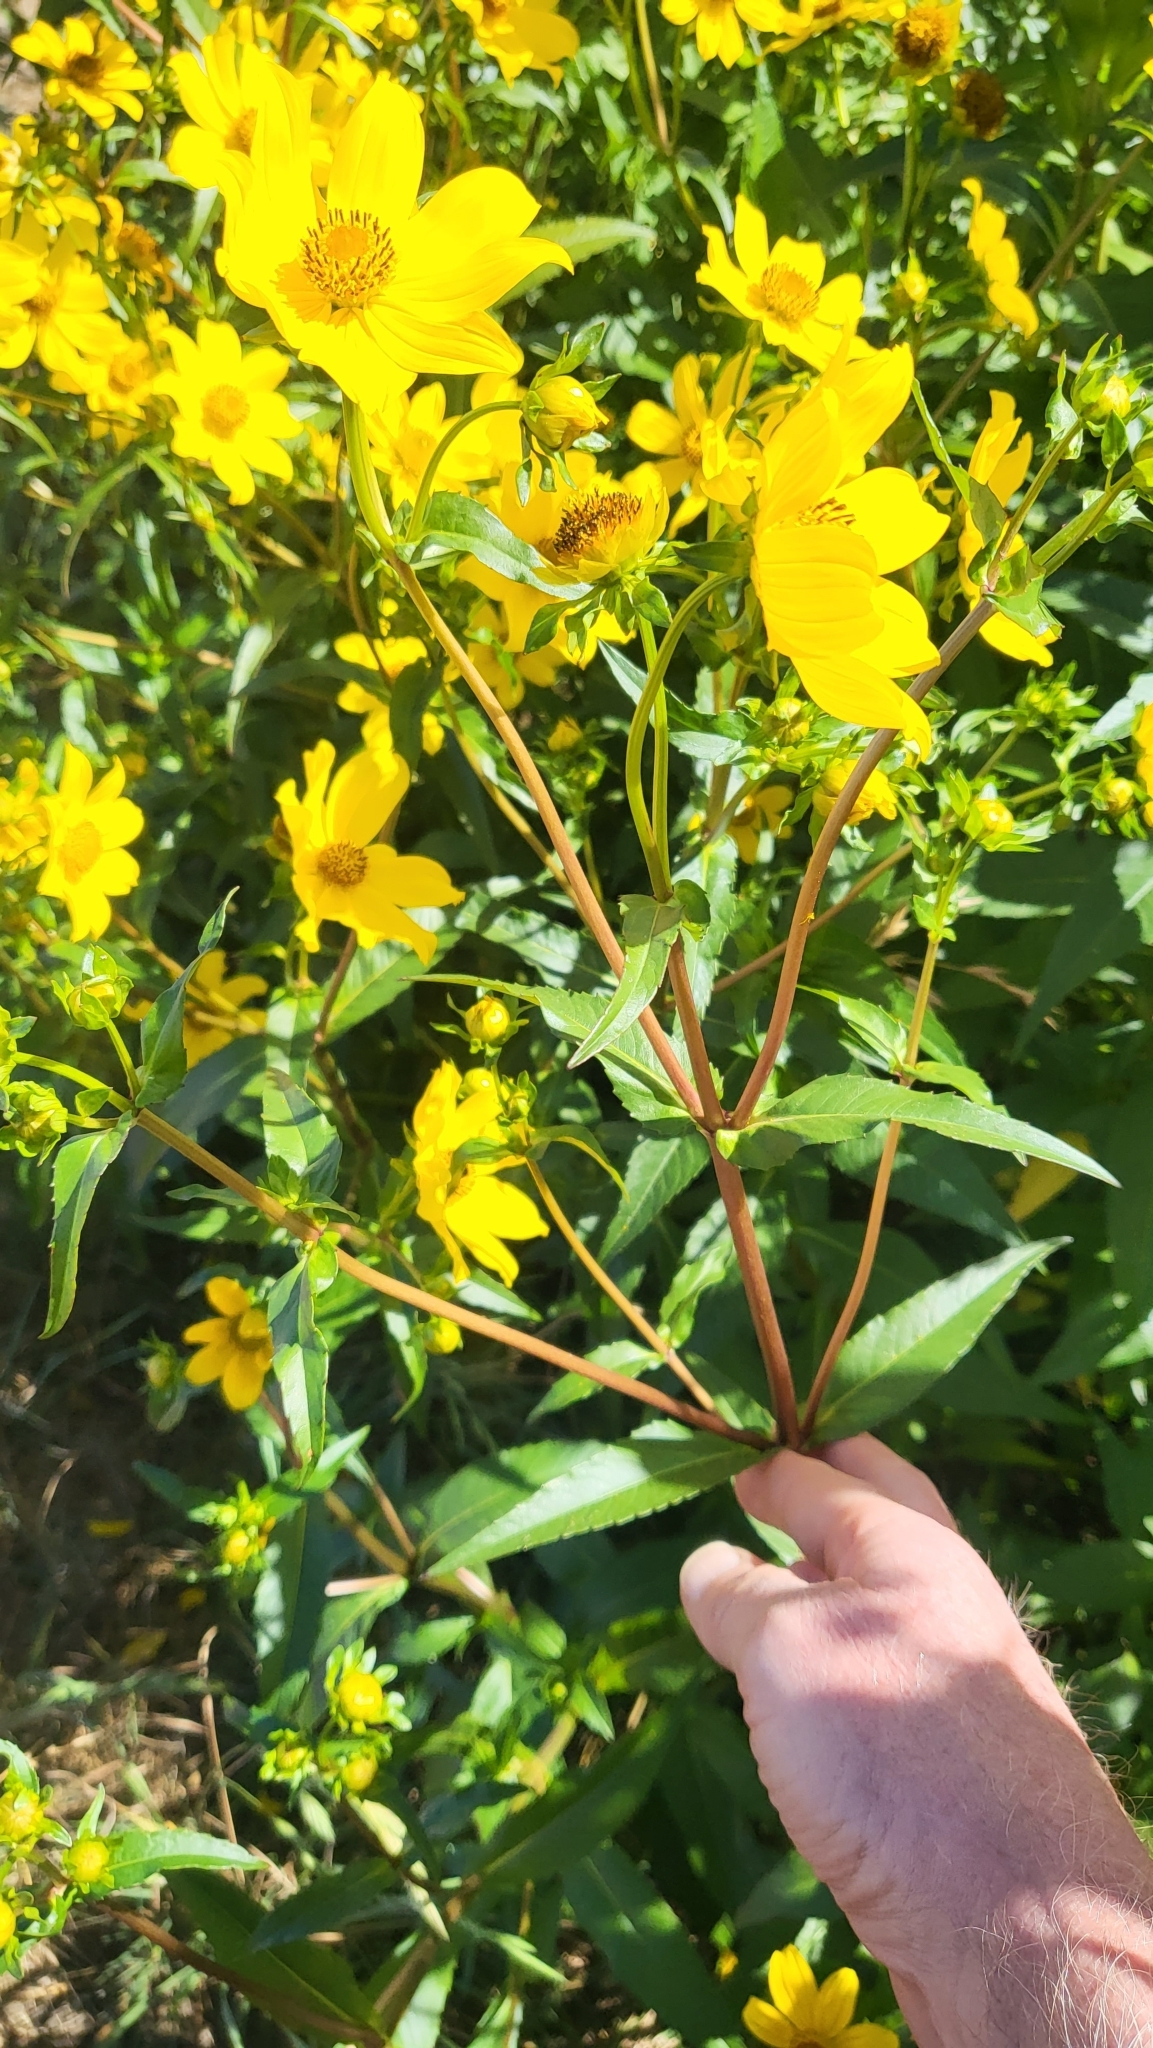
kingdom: Plantae
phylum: Tracheophyta
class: Magnoliopsida
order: Asterales
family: Asteraceae
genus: Bidens
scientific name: Bidens laevis
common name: Larger bur-marigold
